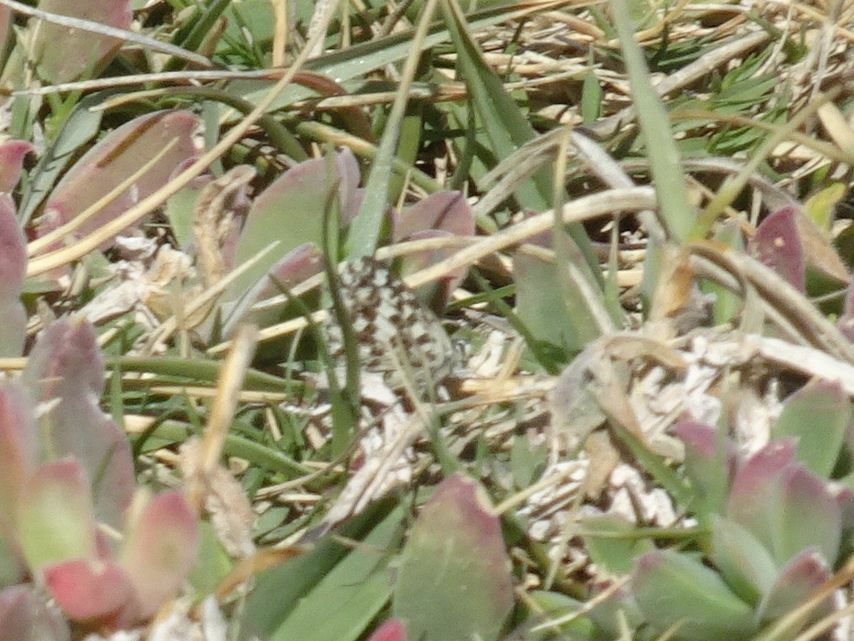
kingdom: Animalia
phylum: Arthropoda
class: Insecta
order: Lepidoptera
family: Lycaenidae
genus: Tarucus
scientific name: Tarucus thespis
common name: Vivid dotted blue
